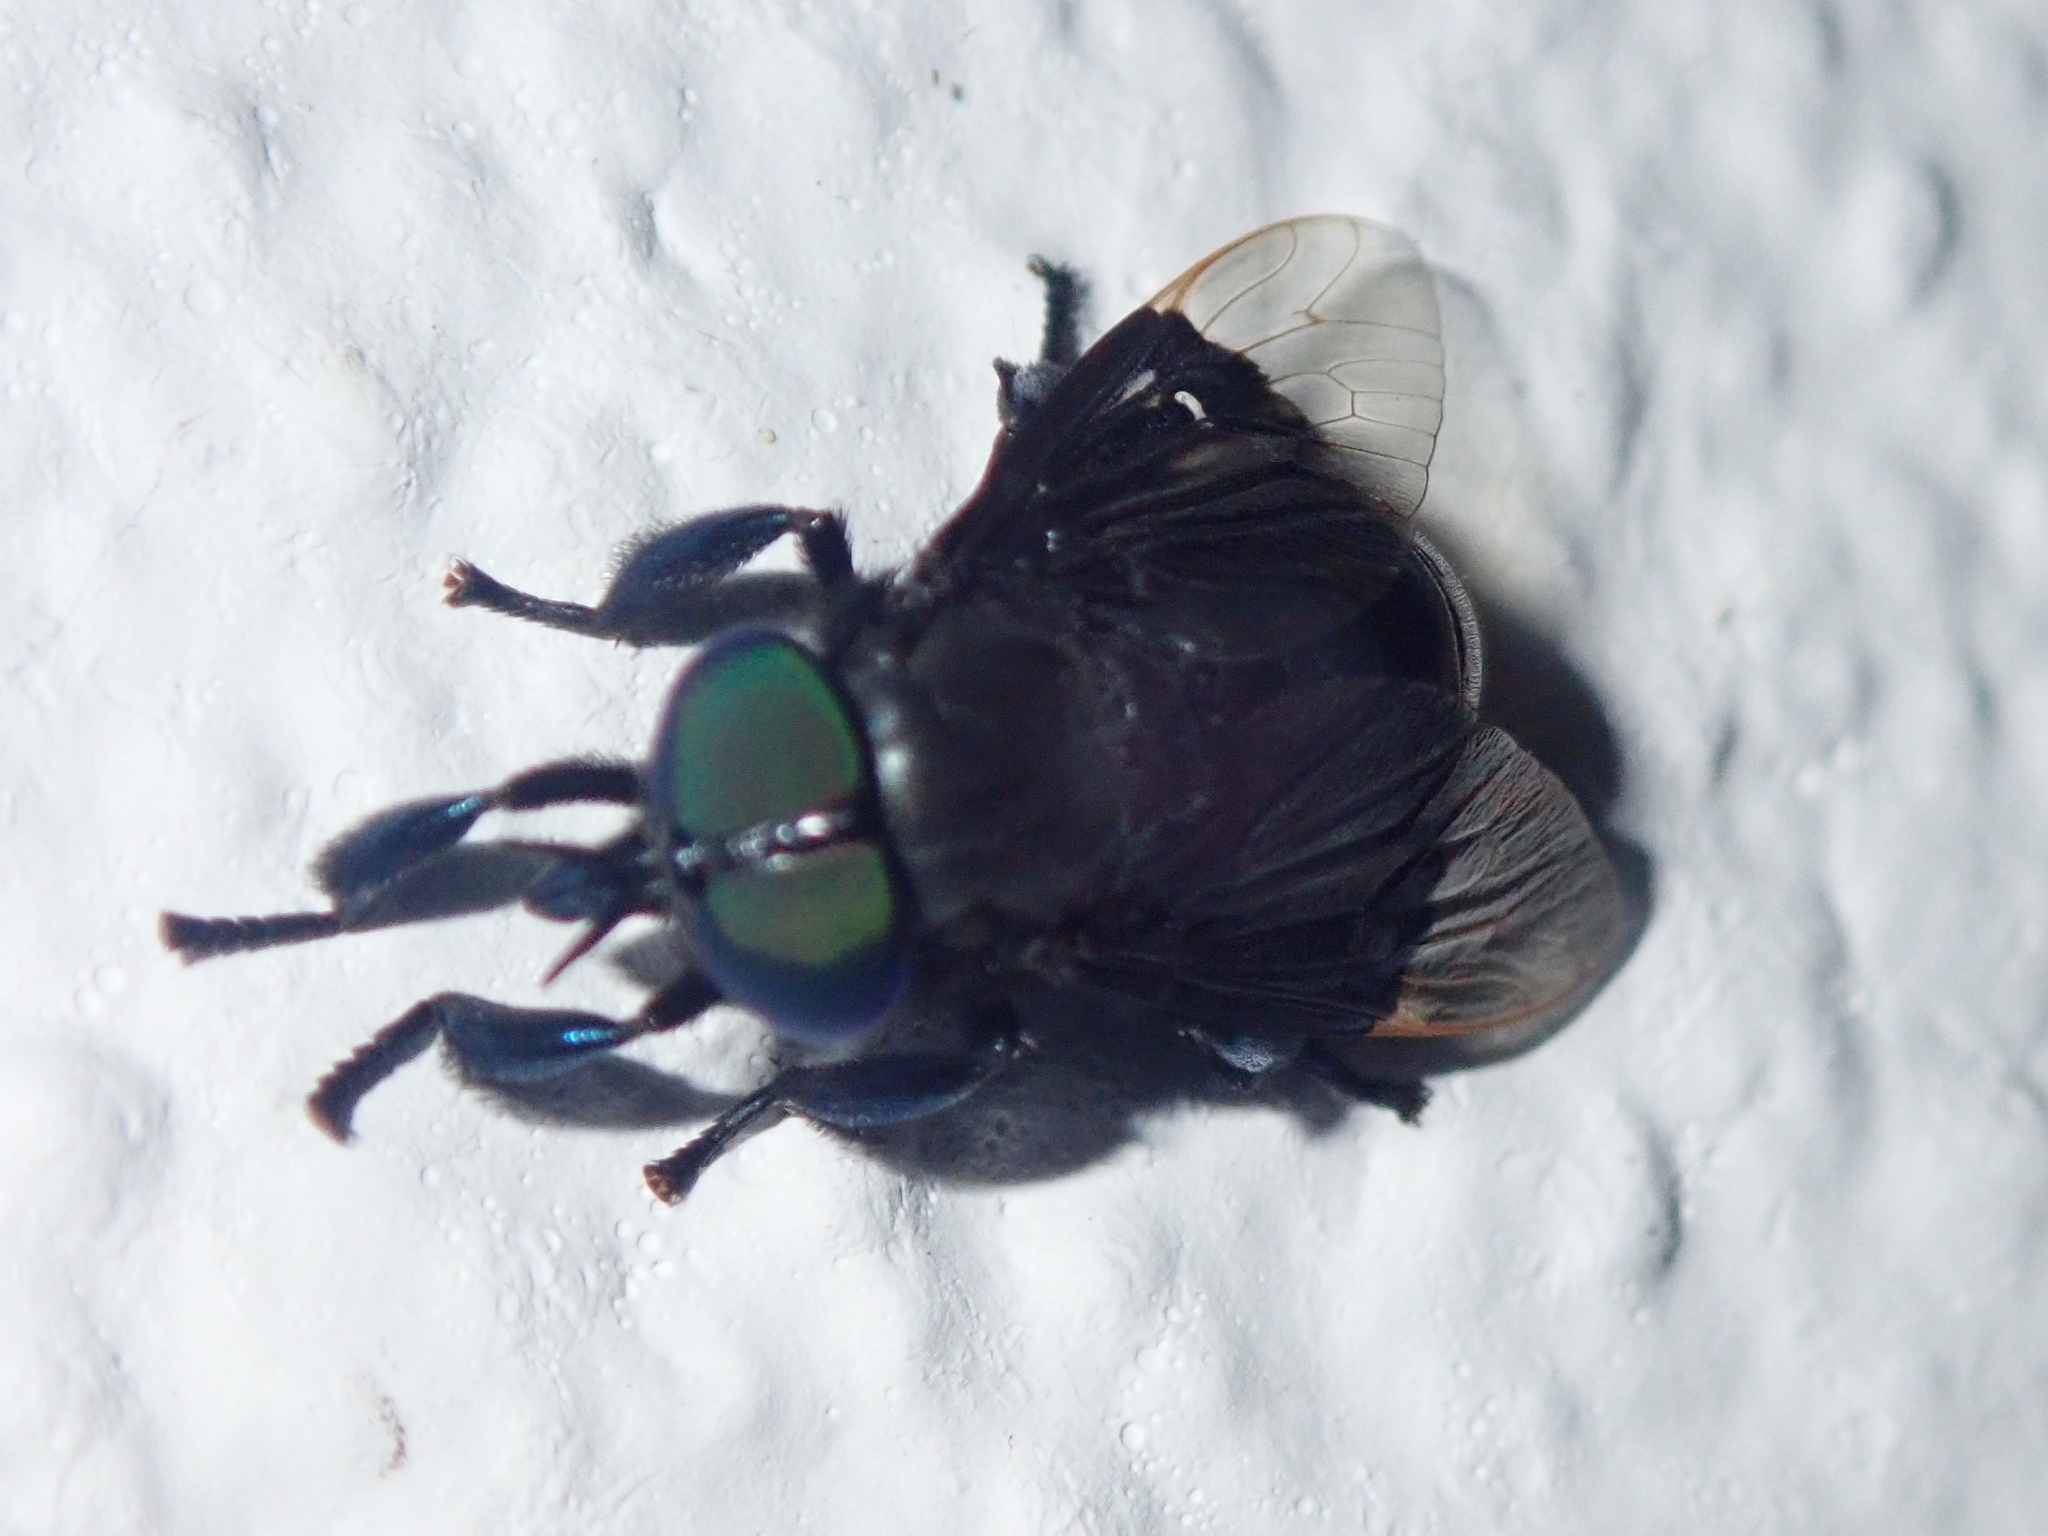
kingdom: Animalia
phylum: Arthropoda
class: Insecta
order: Diptera
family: Tabanidae
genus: Selasoma
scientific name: Selasoma tibiale
